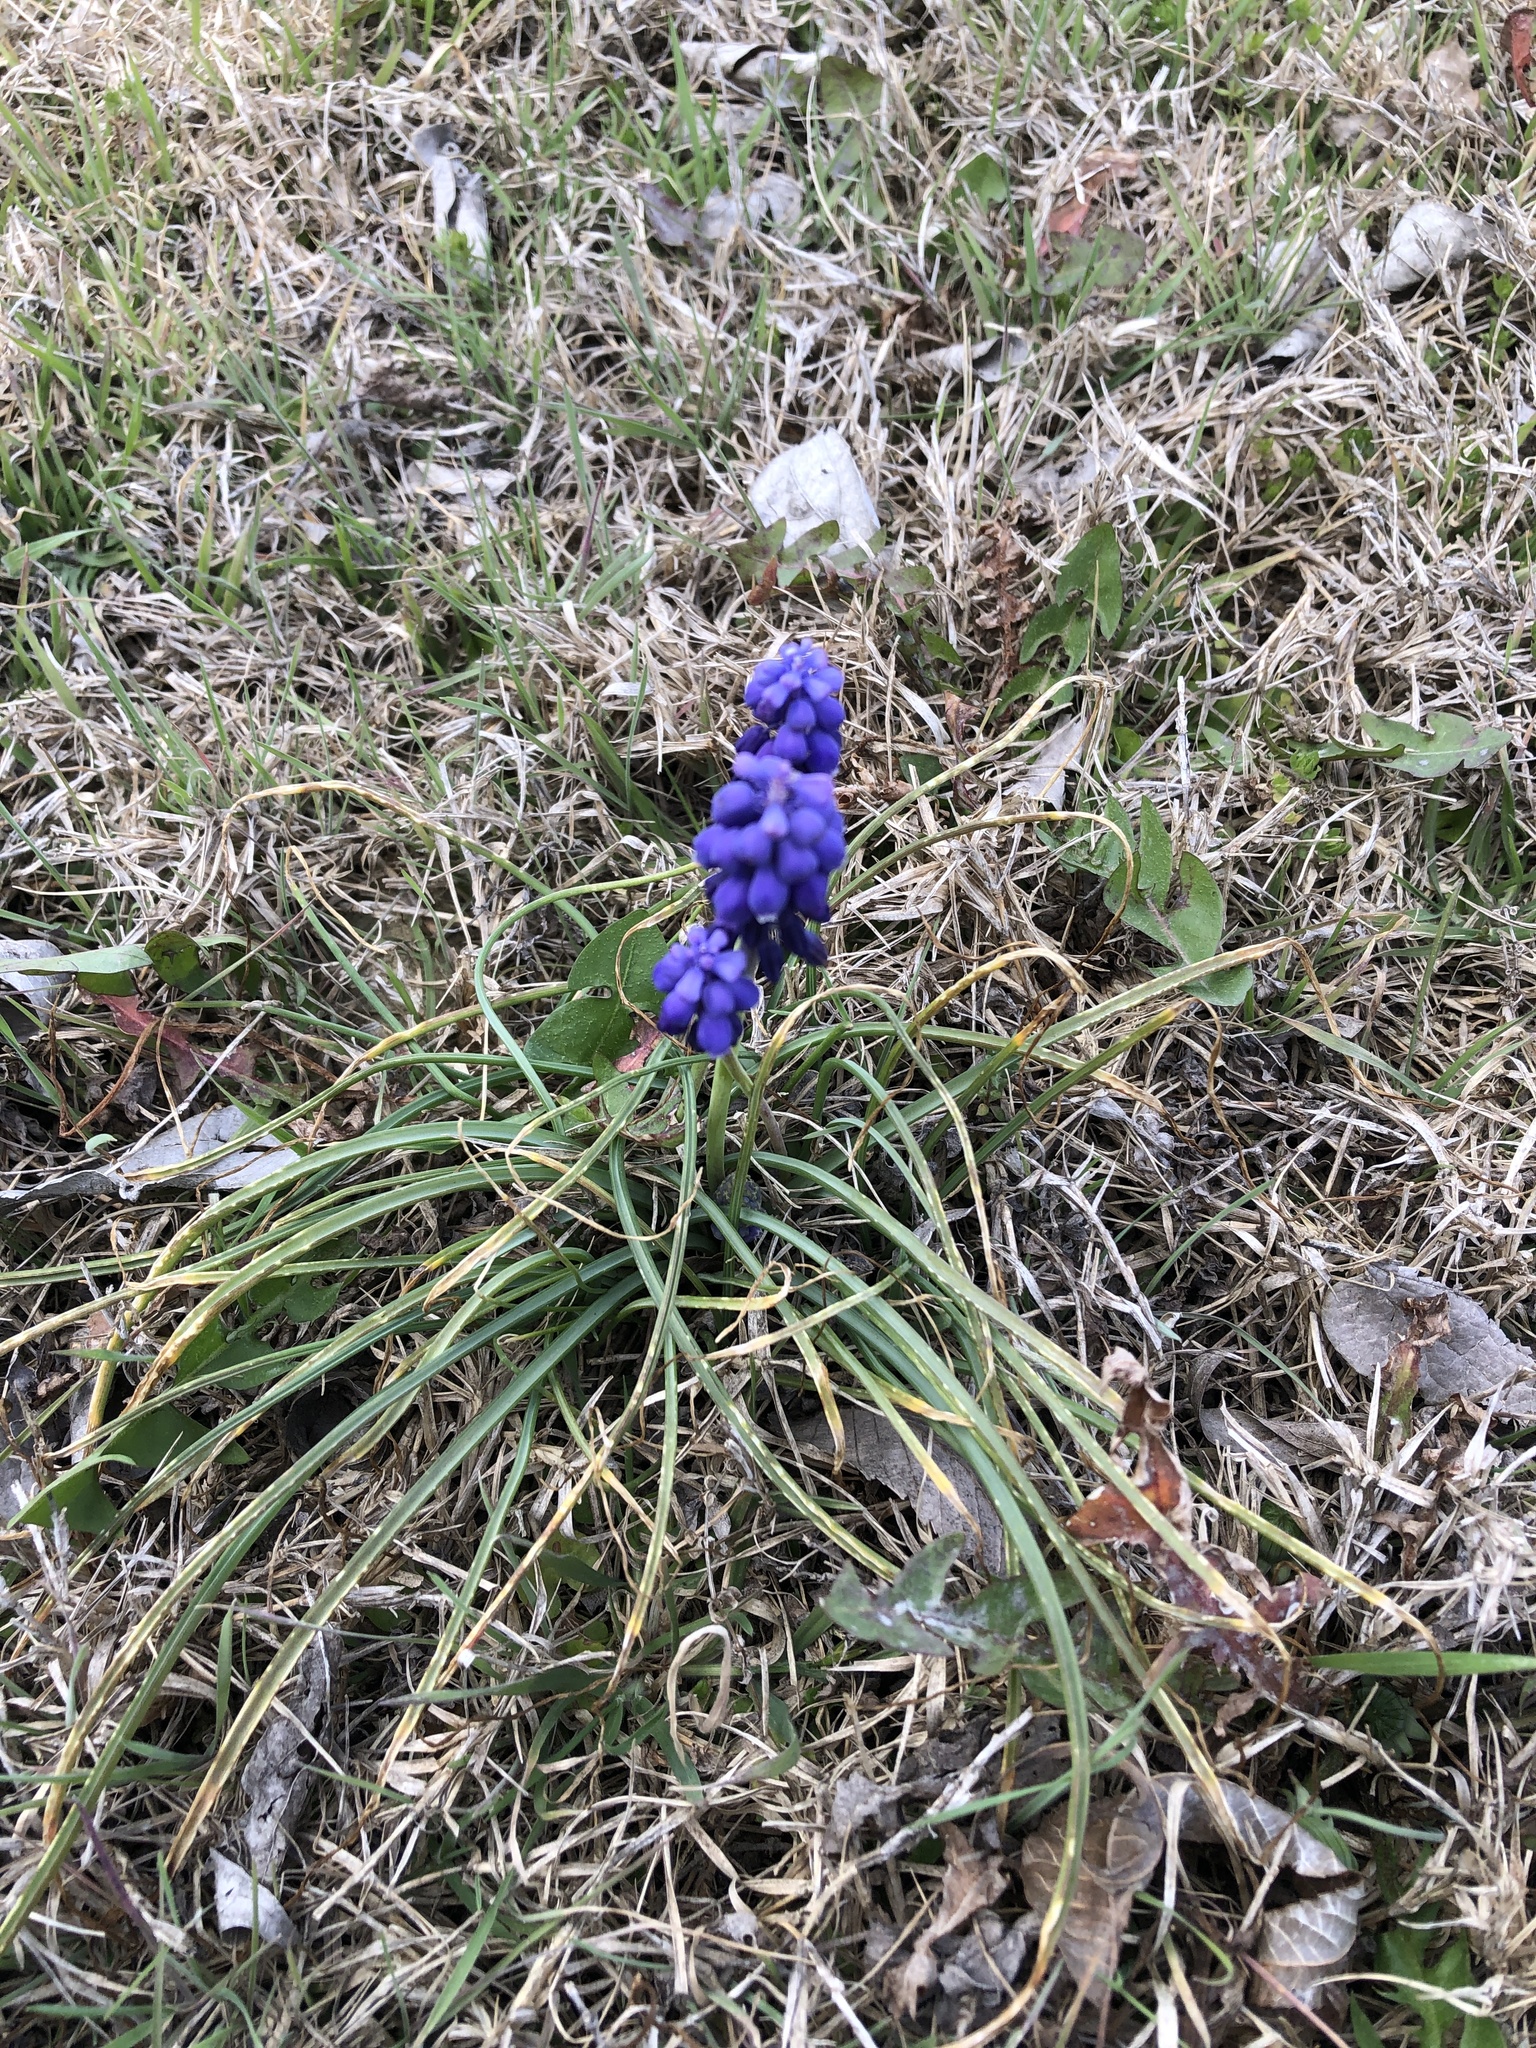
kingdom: Plantae
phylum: Tracheophyta
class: Liliopsida
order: Asparagales
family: Asparagaceae
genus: Muscari
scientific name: Muscari neglectum
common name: Grape-hyacinth
